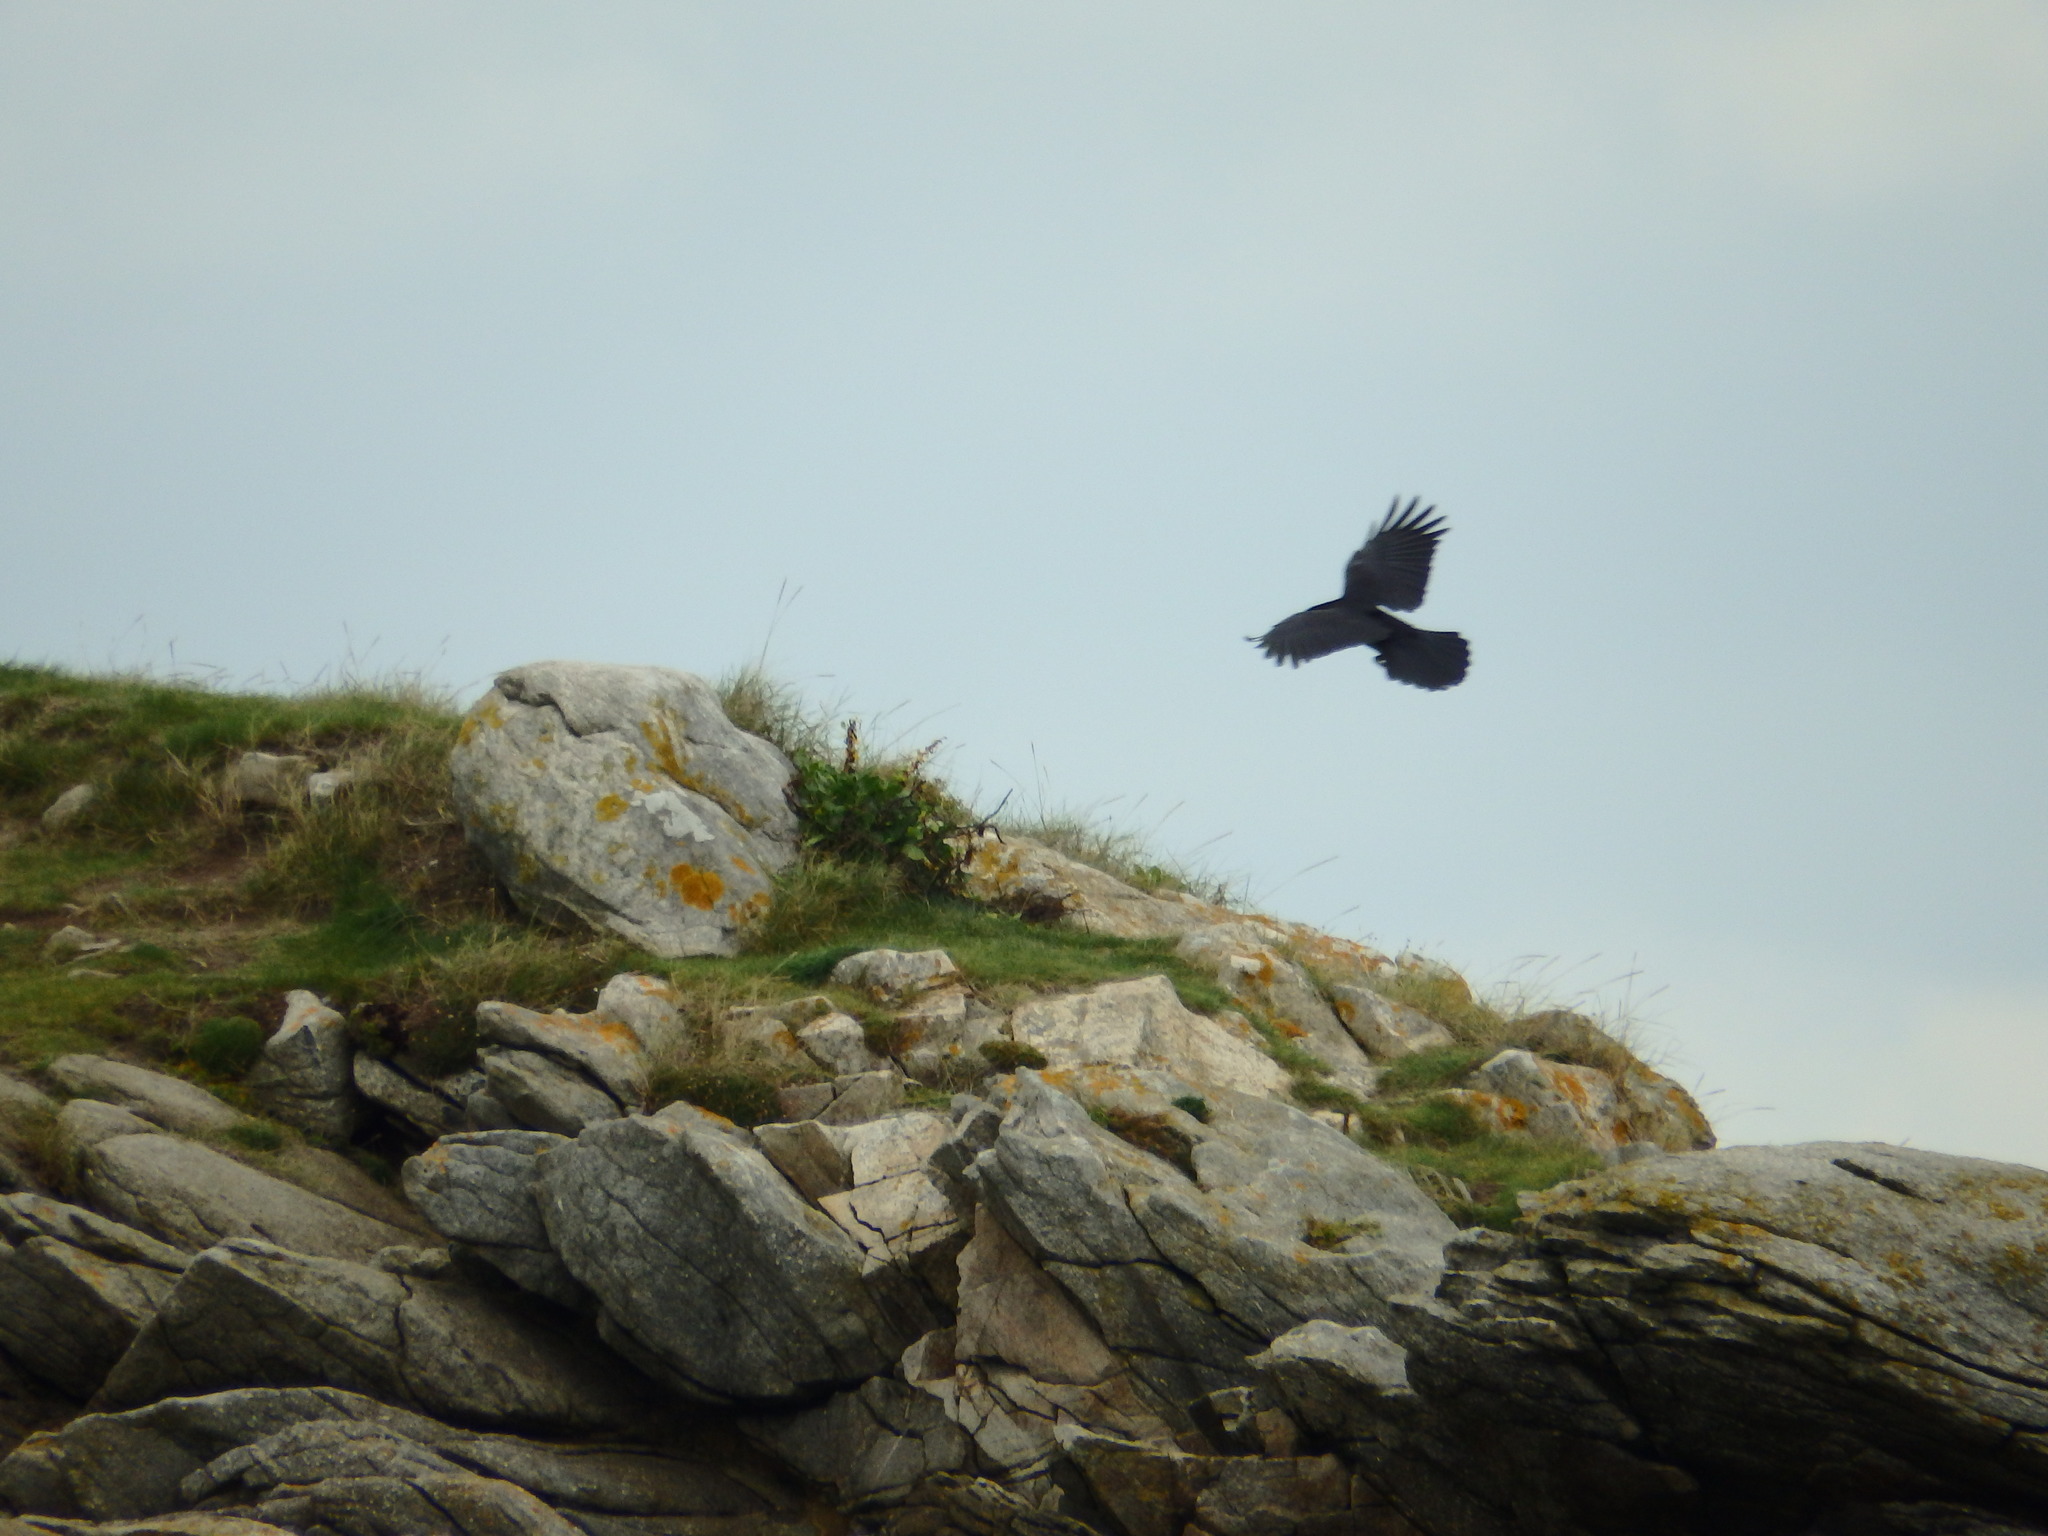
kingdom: Animalia
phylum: Chordata
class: Aves
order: Passeriformes
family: Corvidae
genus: Corvus
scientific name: Corvus corone
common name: Carrion crow
